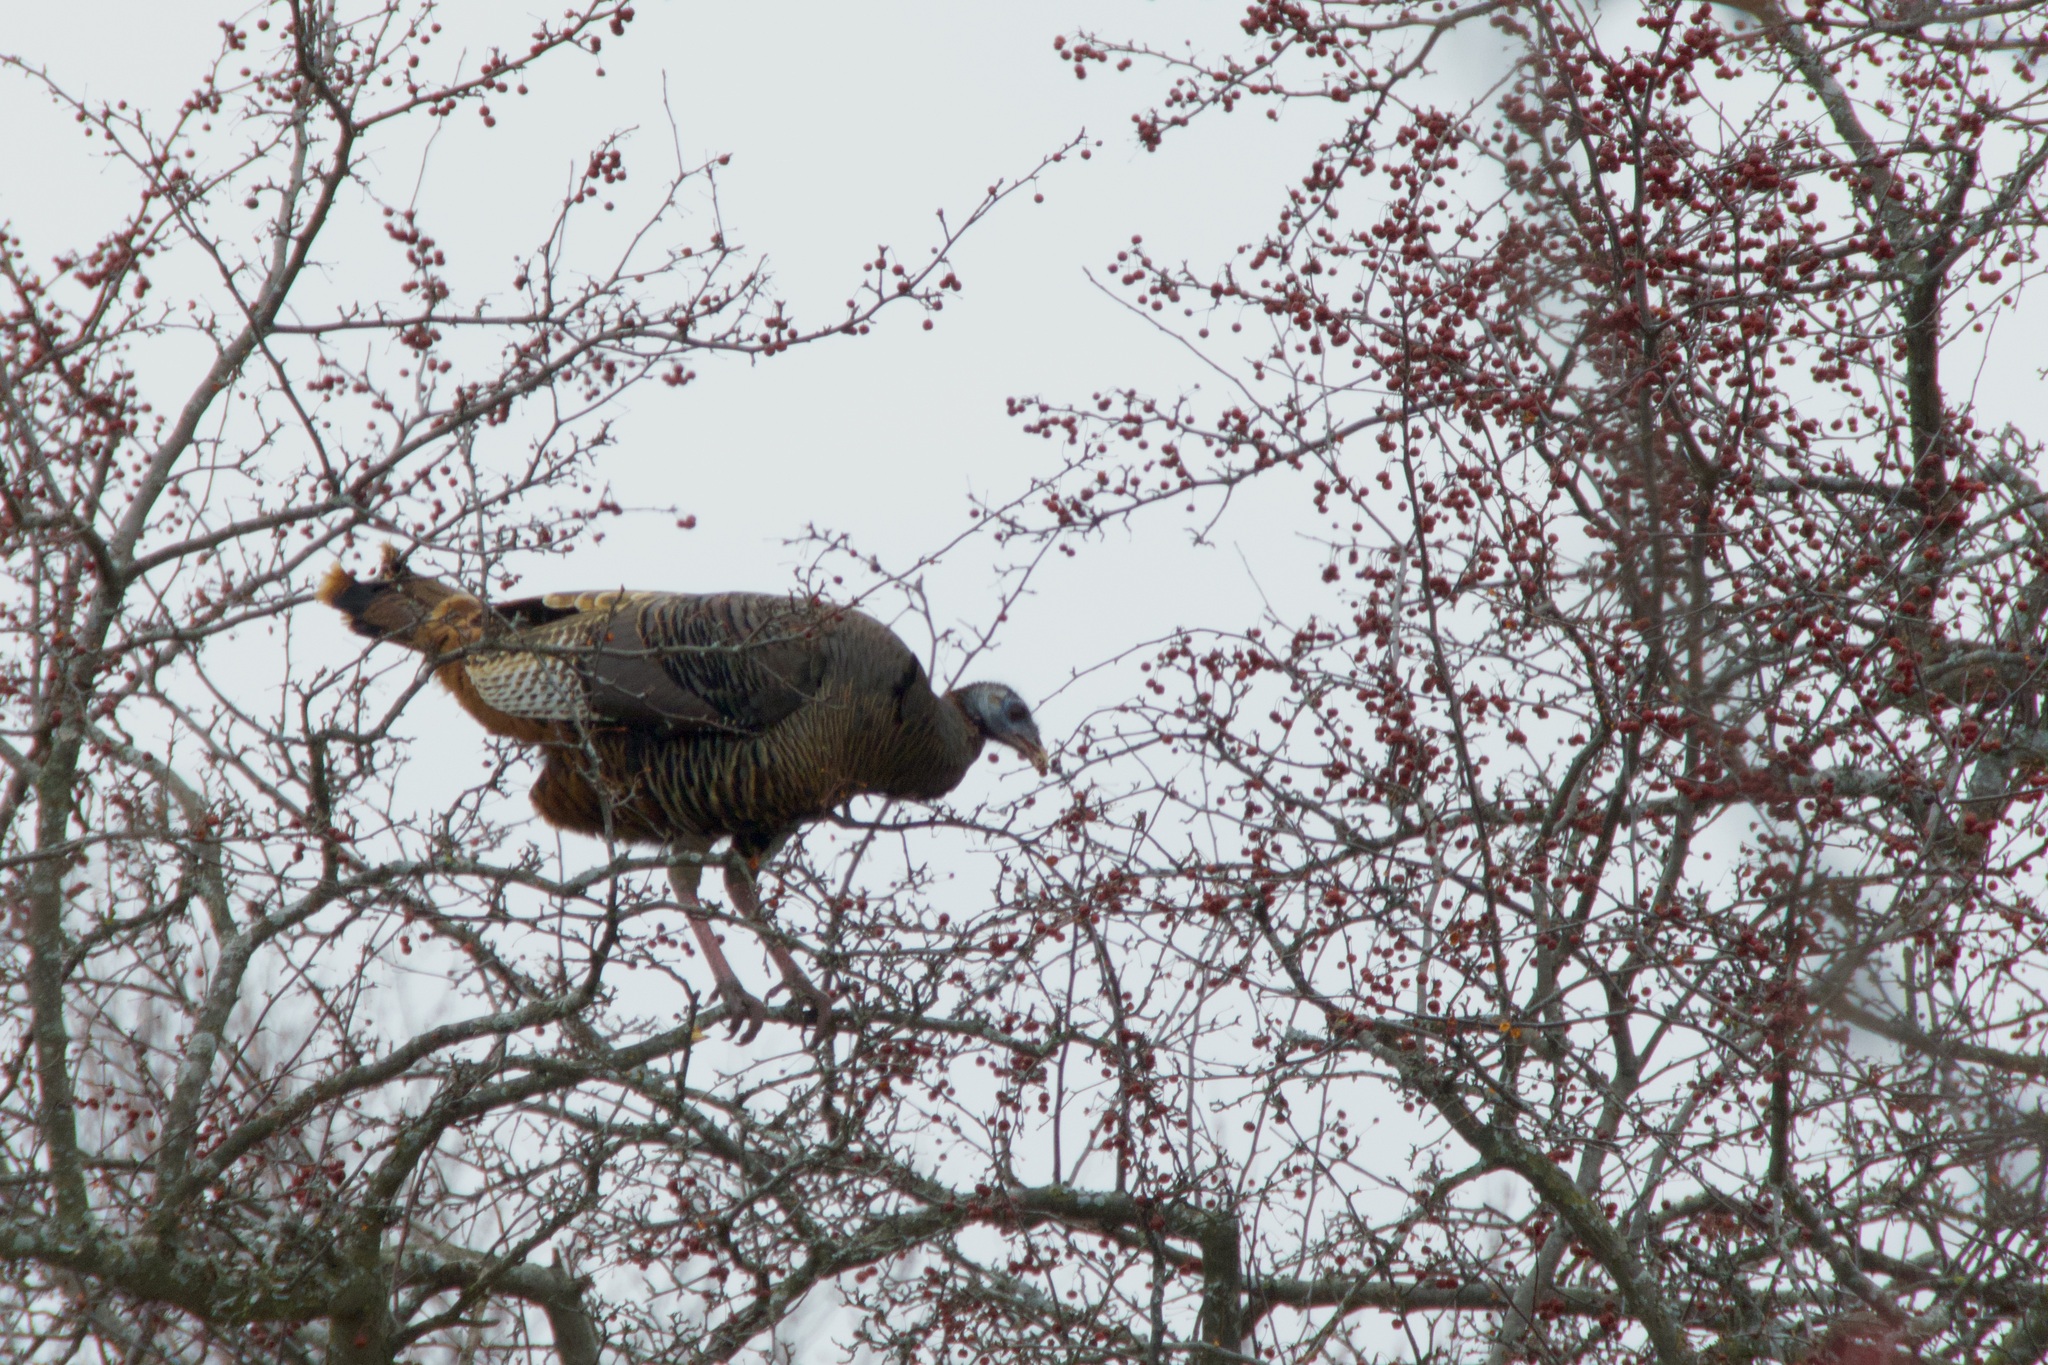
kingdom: Animalia
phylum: Chordata
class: Aves
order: Galliformes
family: Phasianidae
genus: Meleagris
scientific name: Meleagris gallopavo
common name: Wild turkey
